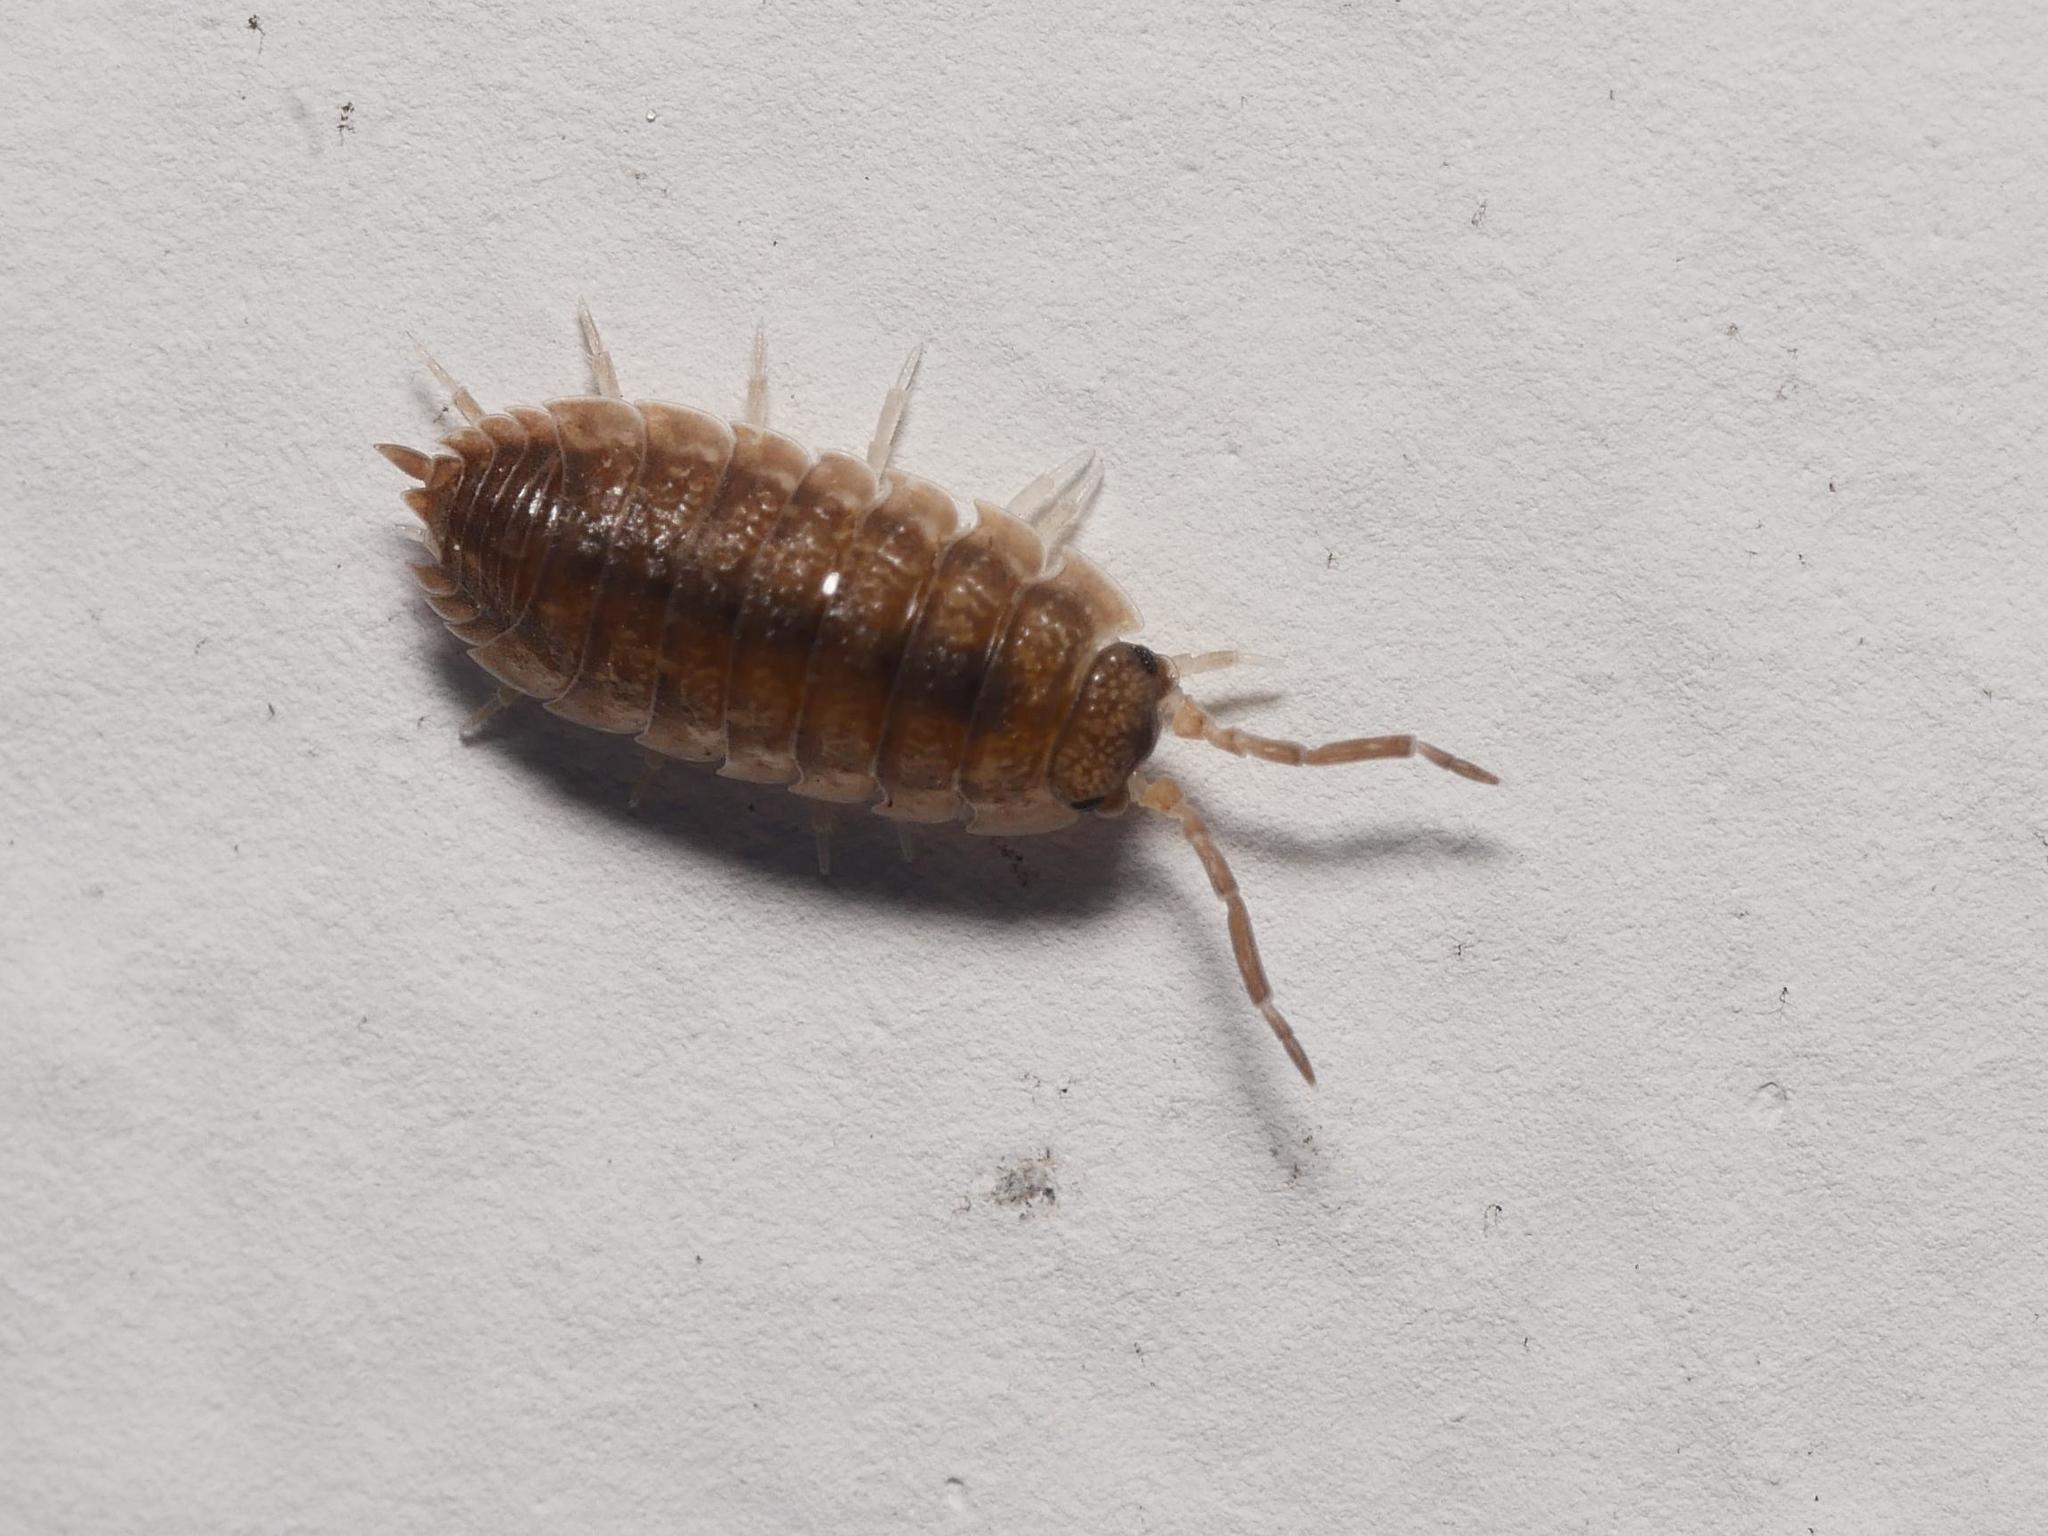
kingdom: Animalia
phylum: Arthropoda
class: Malacostraca
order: Isopoda
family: Porcellionidae
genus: Porcellio
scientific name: Porcellio scaber
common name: Common rough woodlouse
